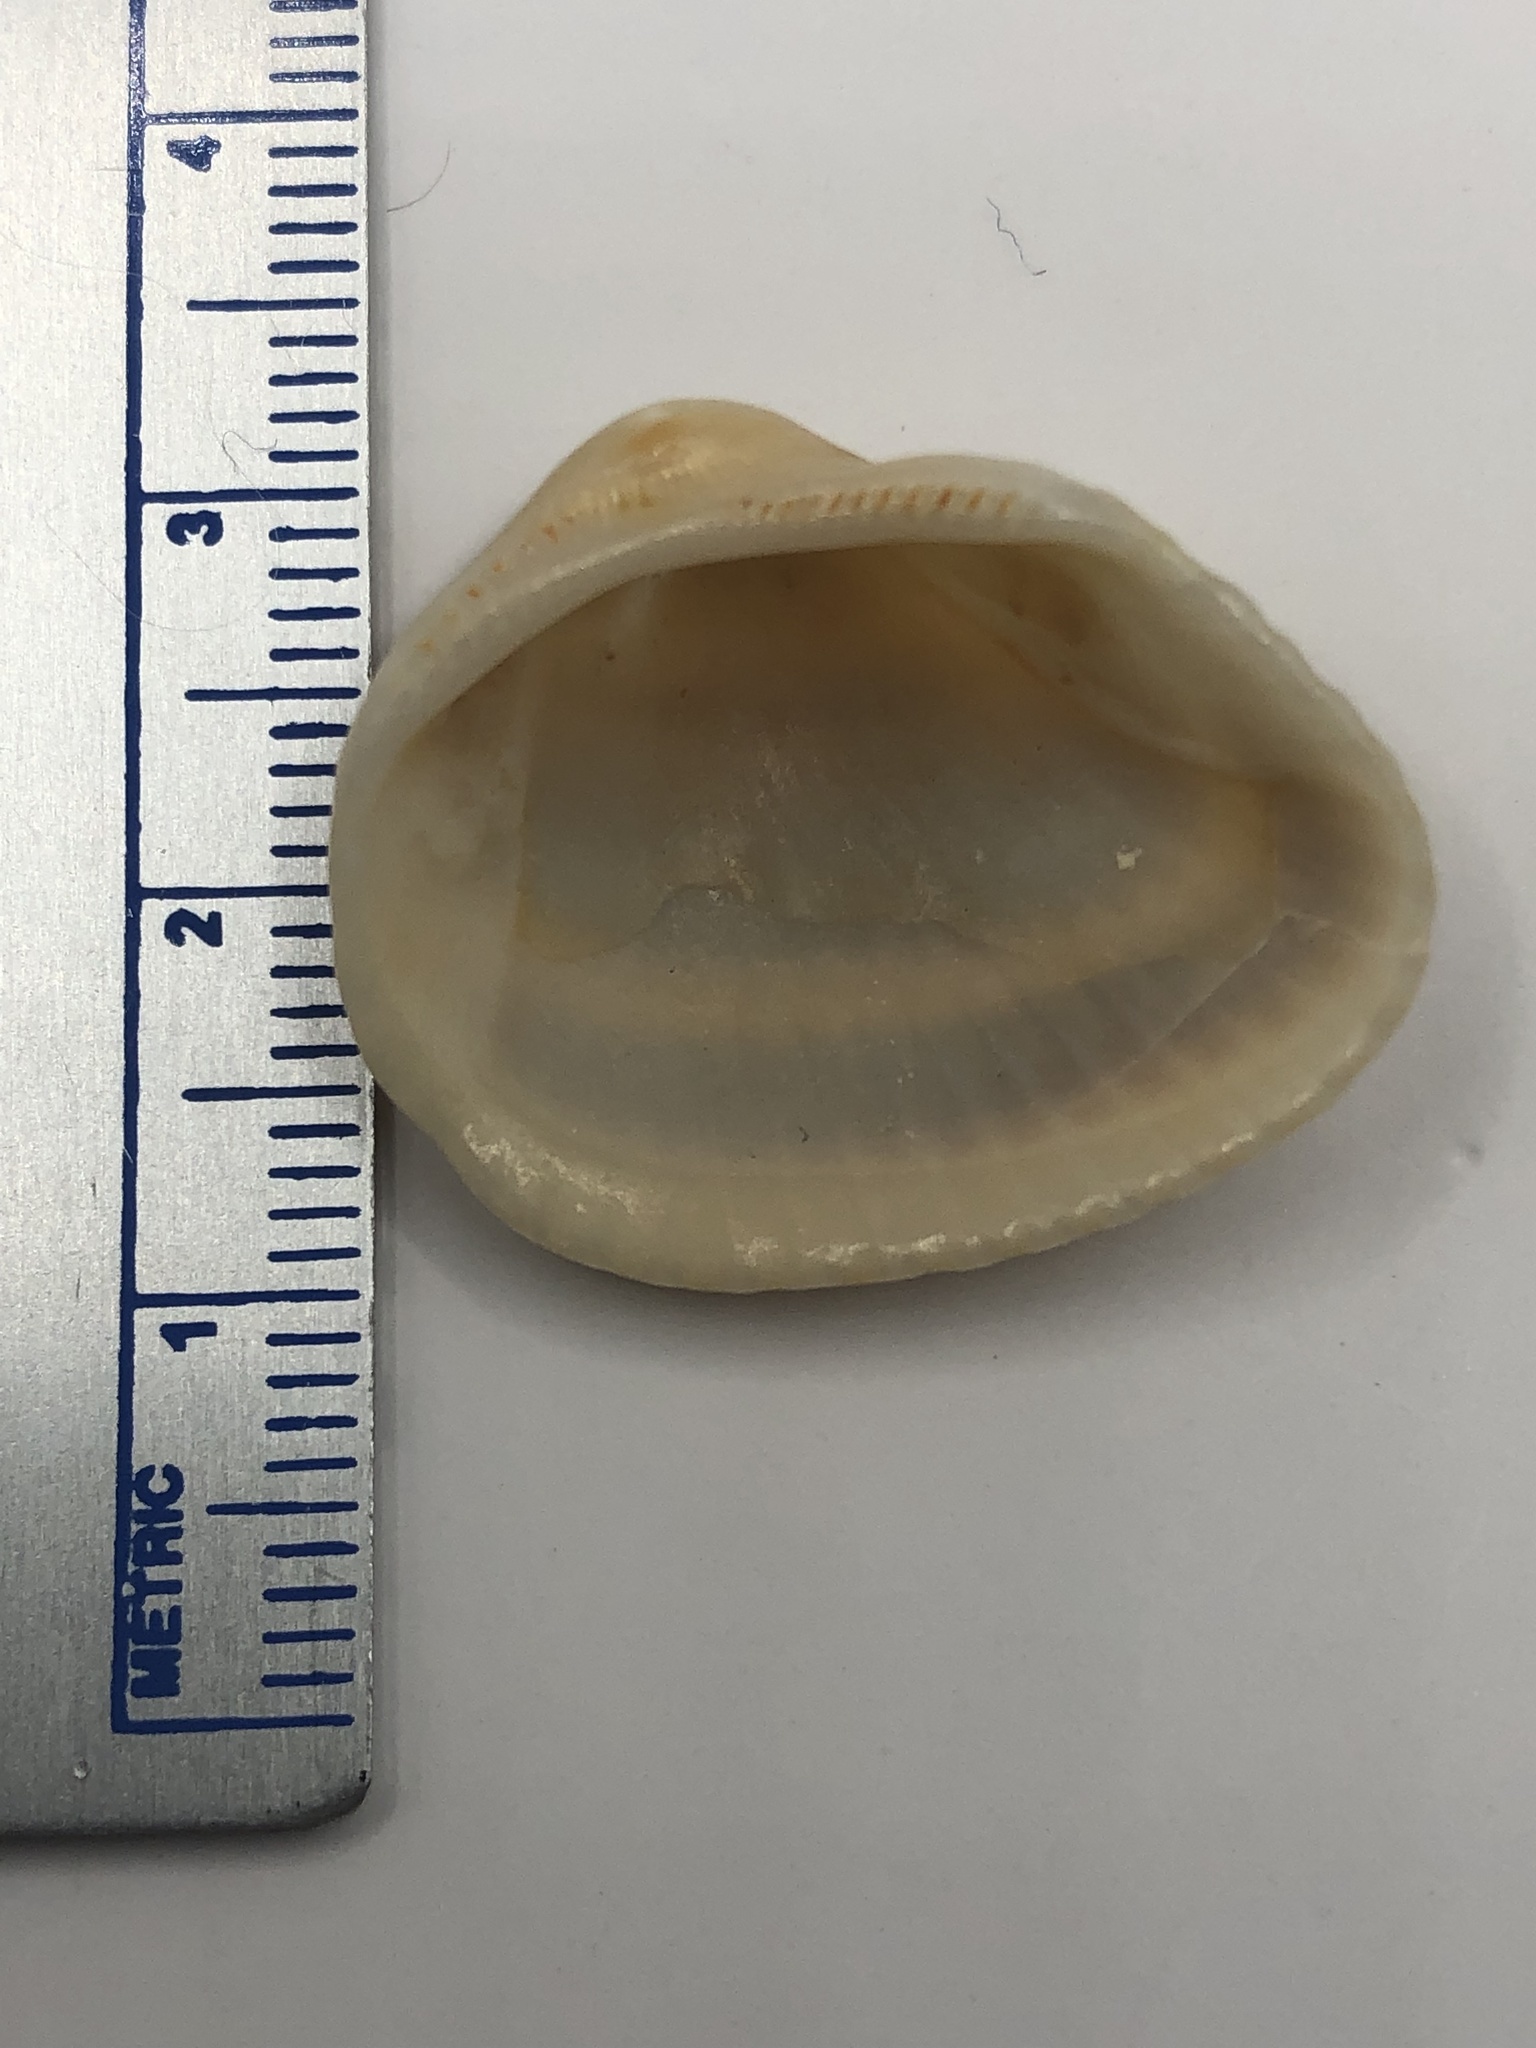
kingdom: Animalia
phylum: Mollusca
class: Bivalvia
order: Arcida
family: Noetiidae
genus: Noetia
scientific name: Noetia ponderosa
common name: Ponderous ark
